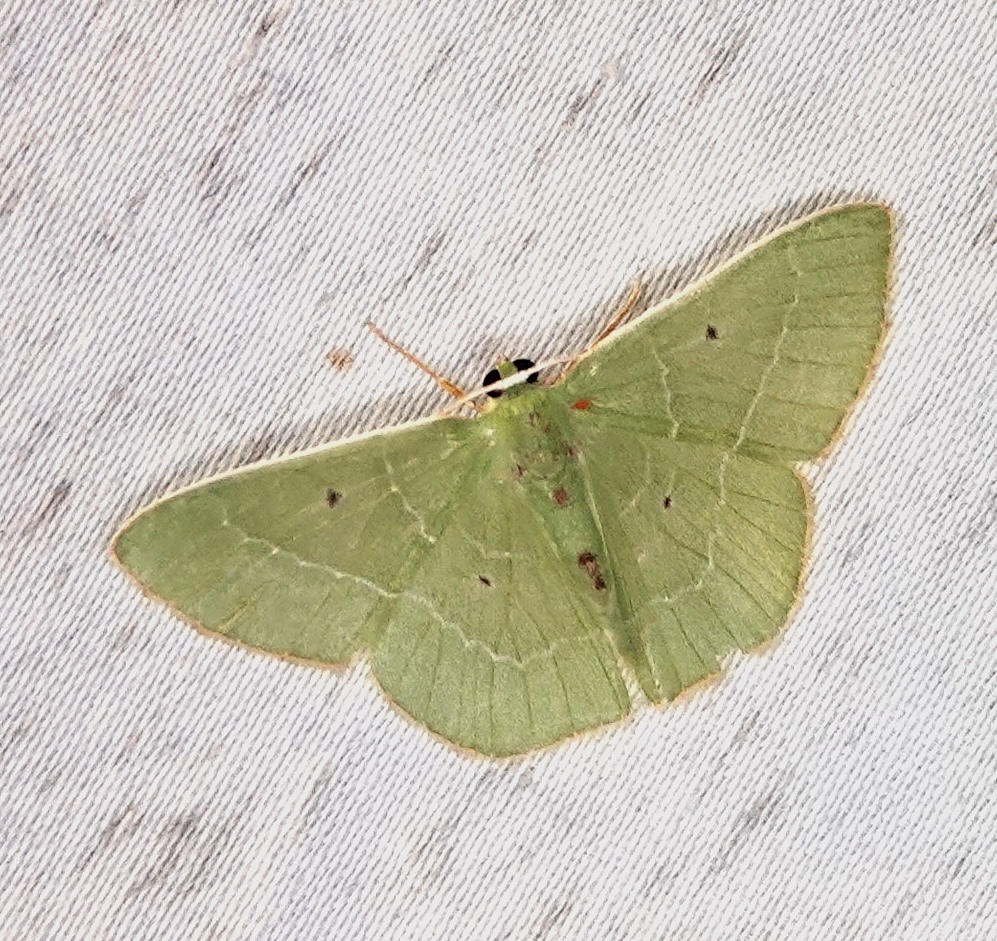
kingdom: Animalia
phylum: Arthropoda
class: Insecta
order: Lepidoptera
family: Geometridae
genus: Nemoria
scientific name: Nemoria karlae
